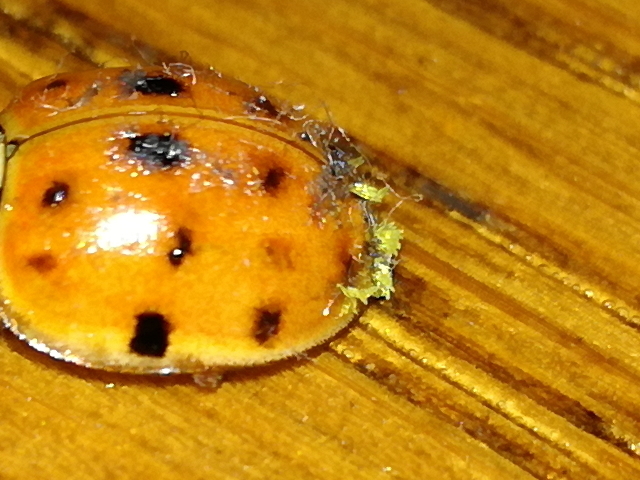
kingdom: Fungi
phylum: Ascomycota
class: Laboulbeniomycetes
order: Laboulbeniales
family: Laboulbeniaceae
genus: Hesperomyces
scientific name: Hesperomyces harmoniae
